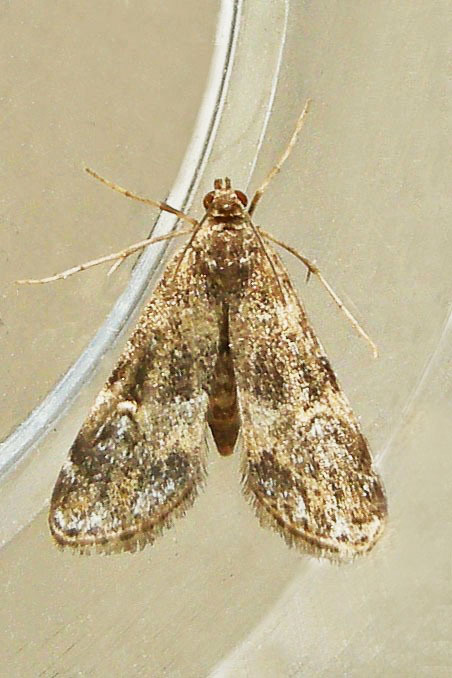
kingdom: Animalia
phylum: Arthropoda
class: Insecta
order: Lepidoptera
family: Crambidae
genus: Elophila
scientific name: Elophila obliteralis
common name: Waterlily leafcutter moth
